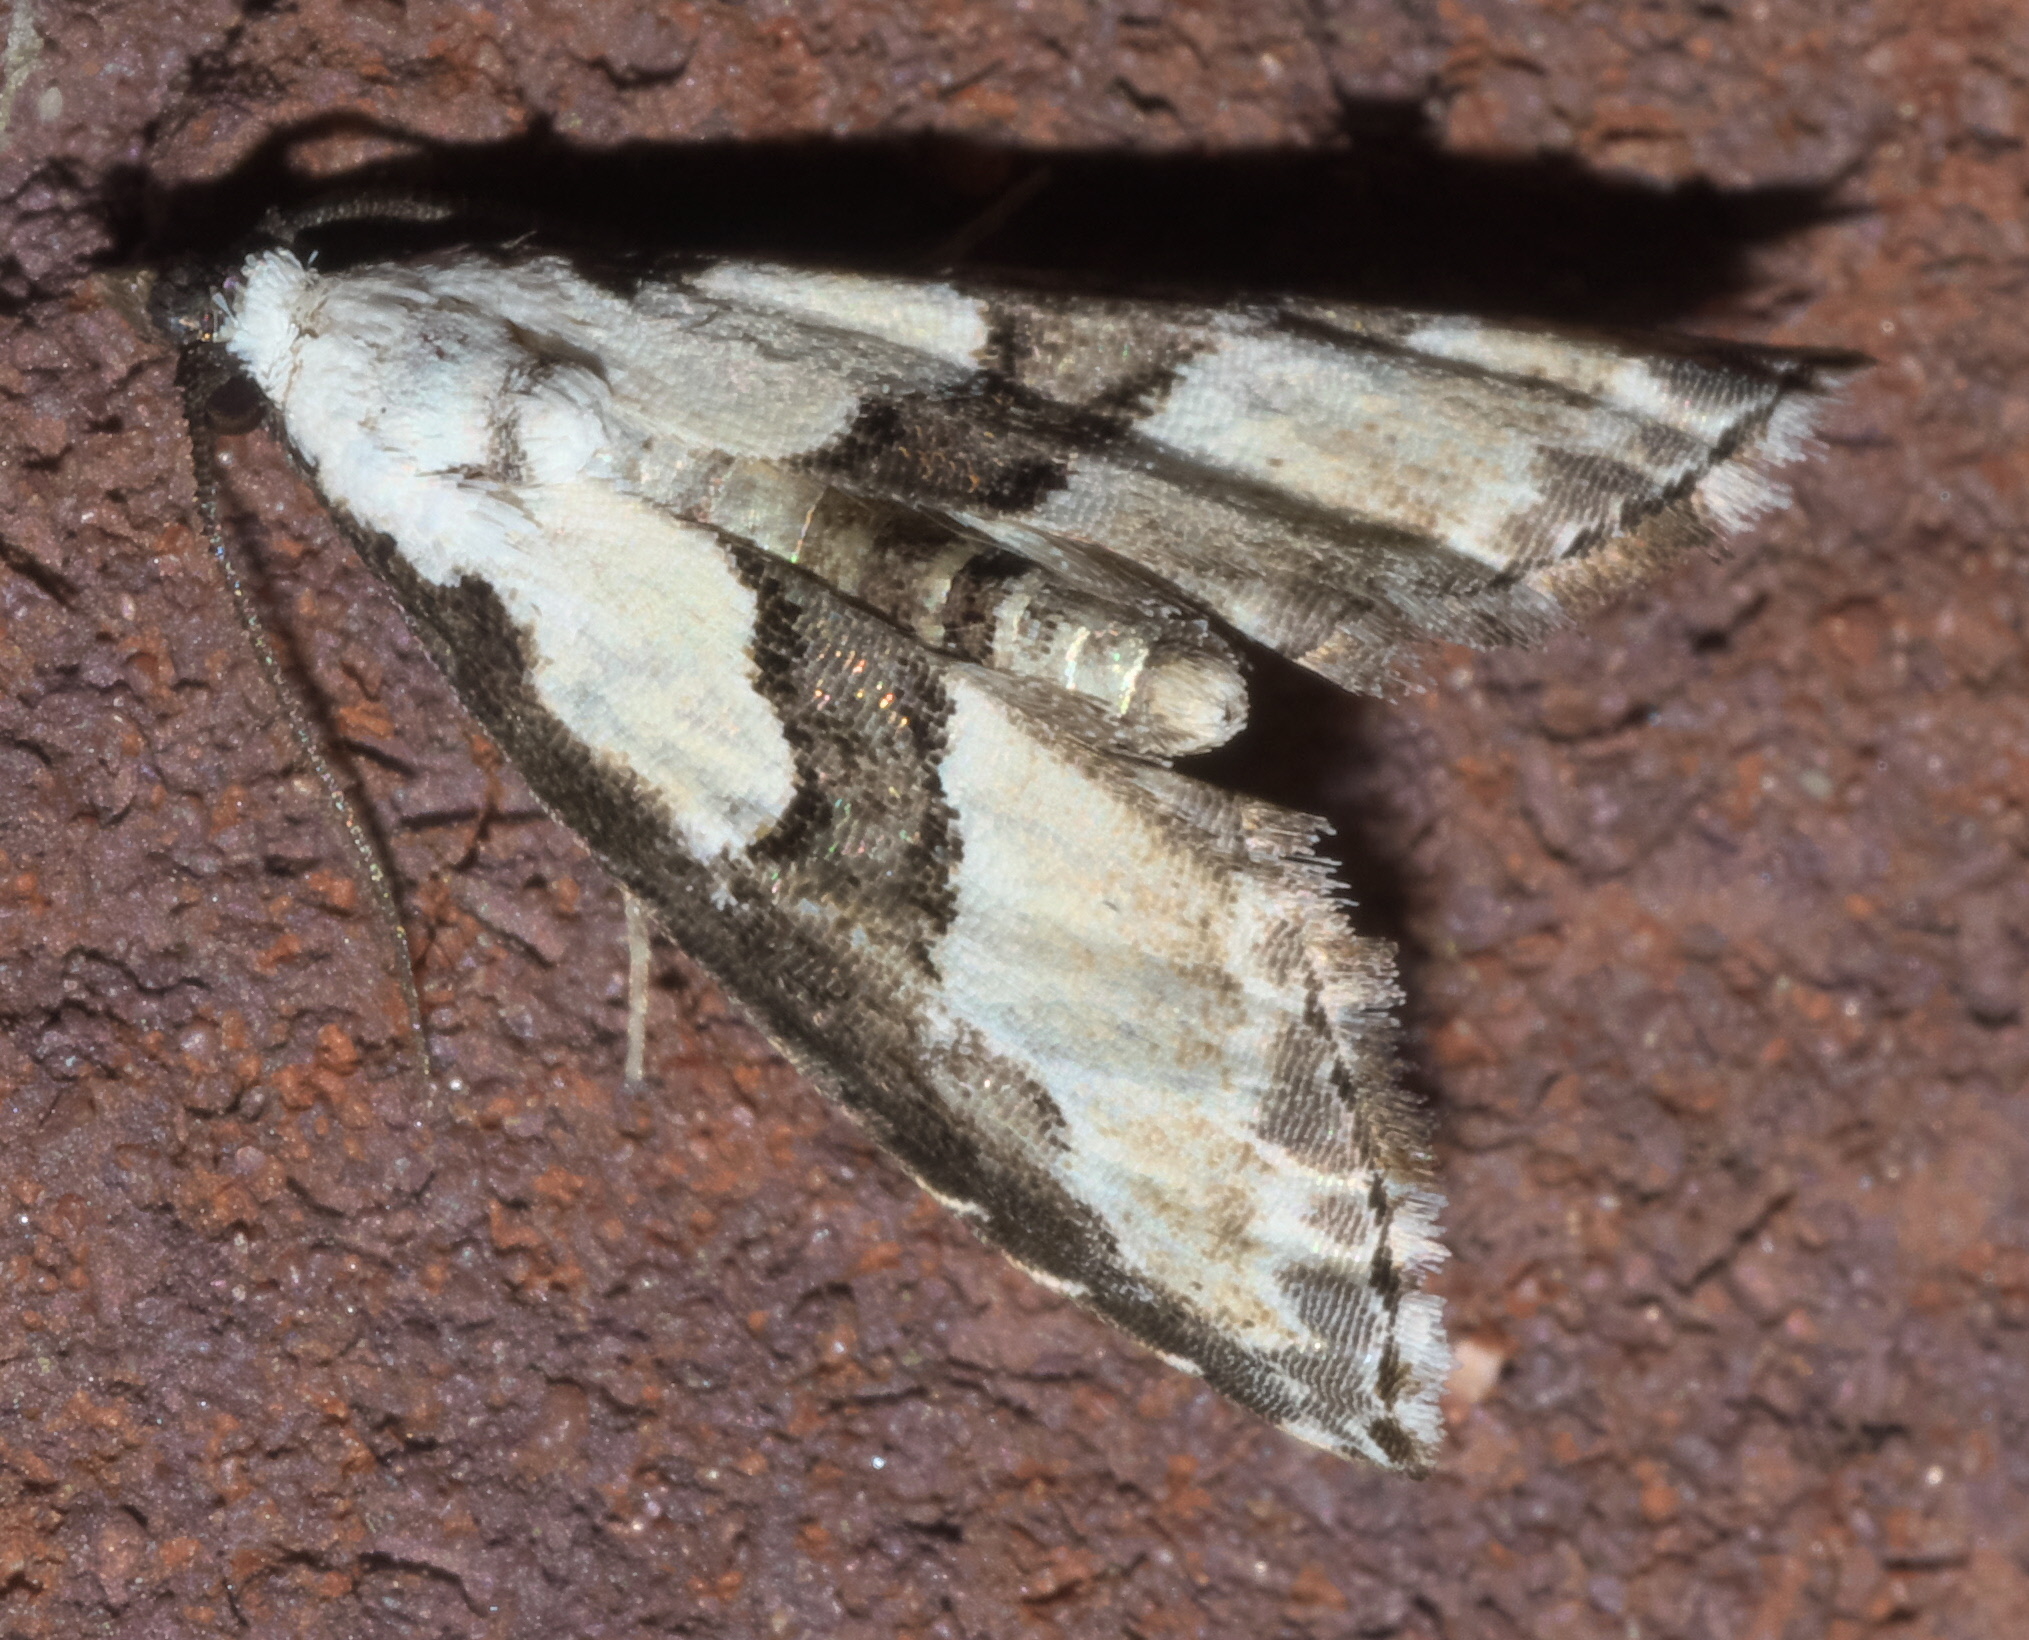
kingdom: Animalia
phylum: Arthropoda
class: Insecta
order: Lepidoptera
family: Noctuidae
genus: Nigetia
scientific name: Nigetia formosalis
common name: Thin-winged owlet
